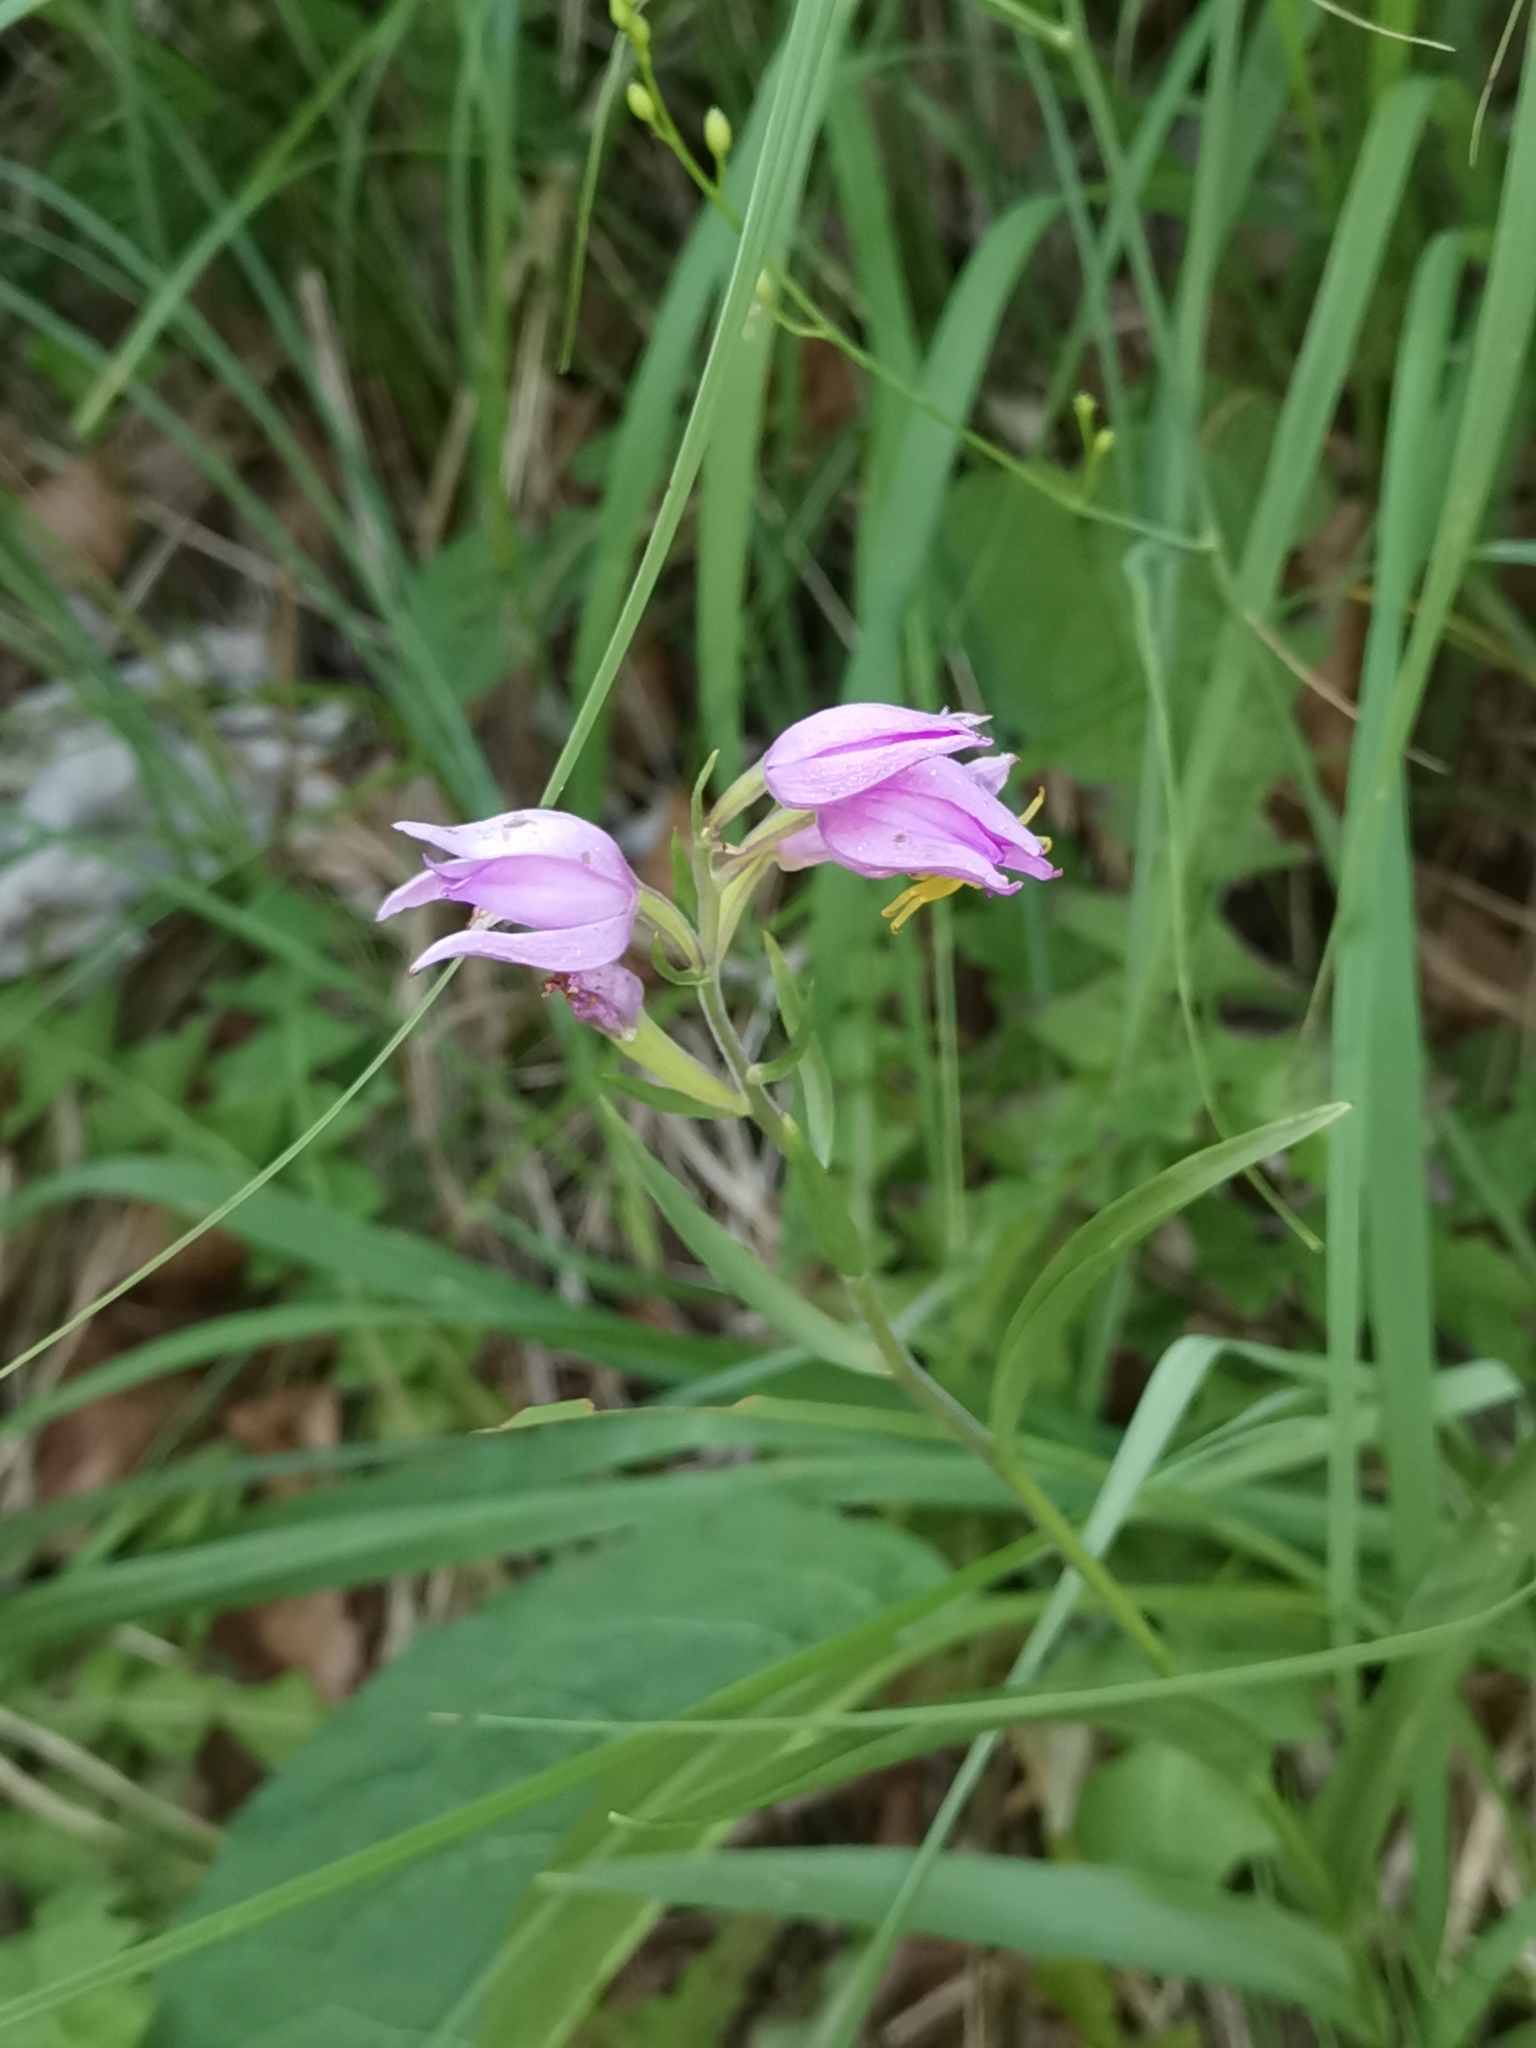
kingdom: Plantae
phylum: Tracheophyta
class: Liliopsida
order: Asparagales
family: Orchidaceae
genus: Cephalanthera
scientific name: Cephalanthera rubra
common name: Red helleborine
